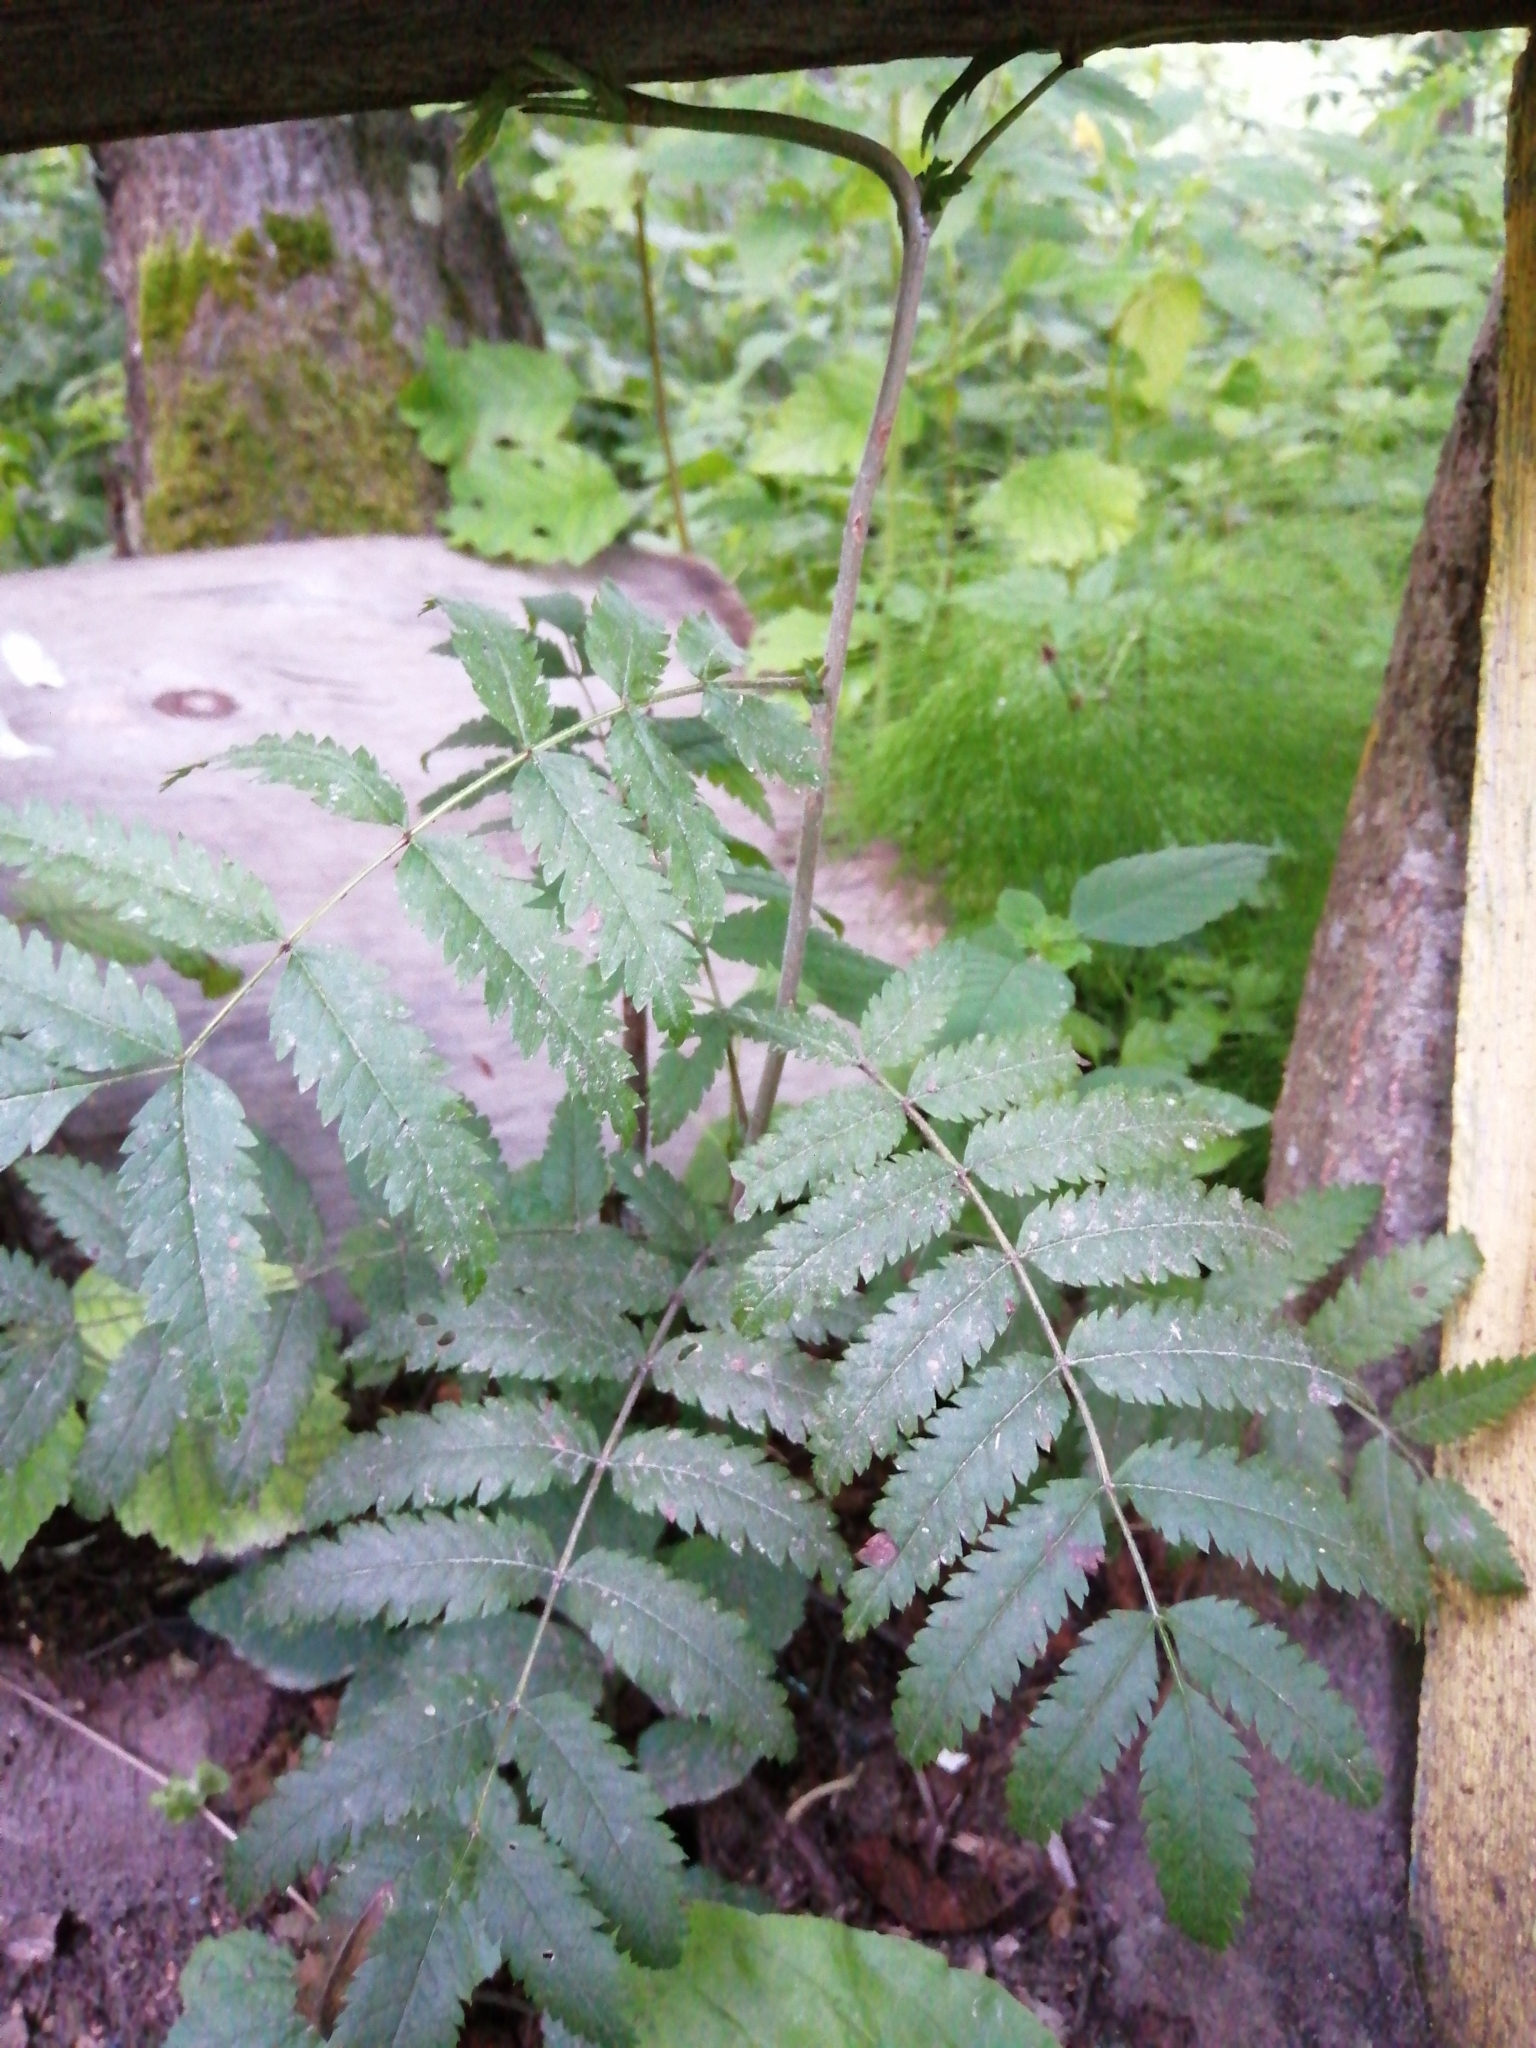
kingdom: Plantae
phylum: Tracheophyta
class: Magnoliopsida
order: Rosales
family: Rosaceae
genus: Sorbus
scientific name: Sorbus aucuparia
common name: Rowan
